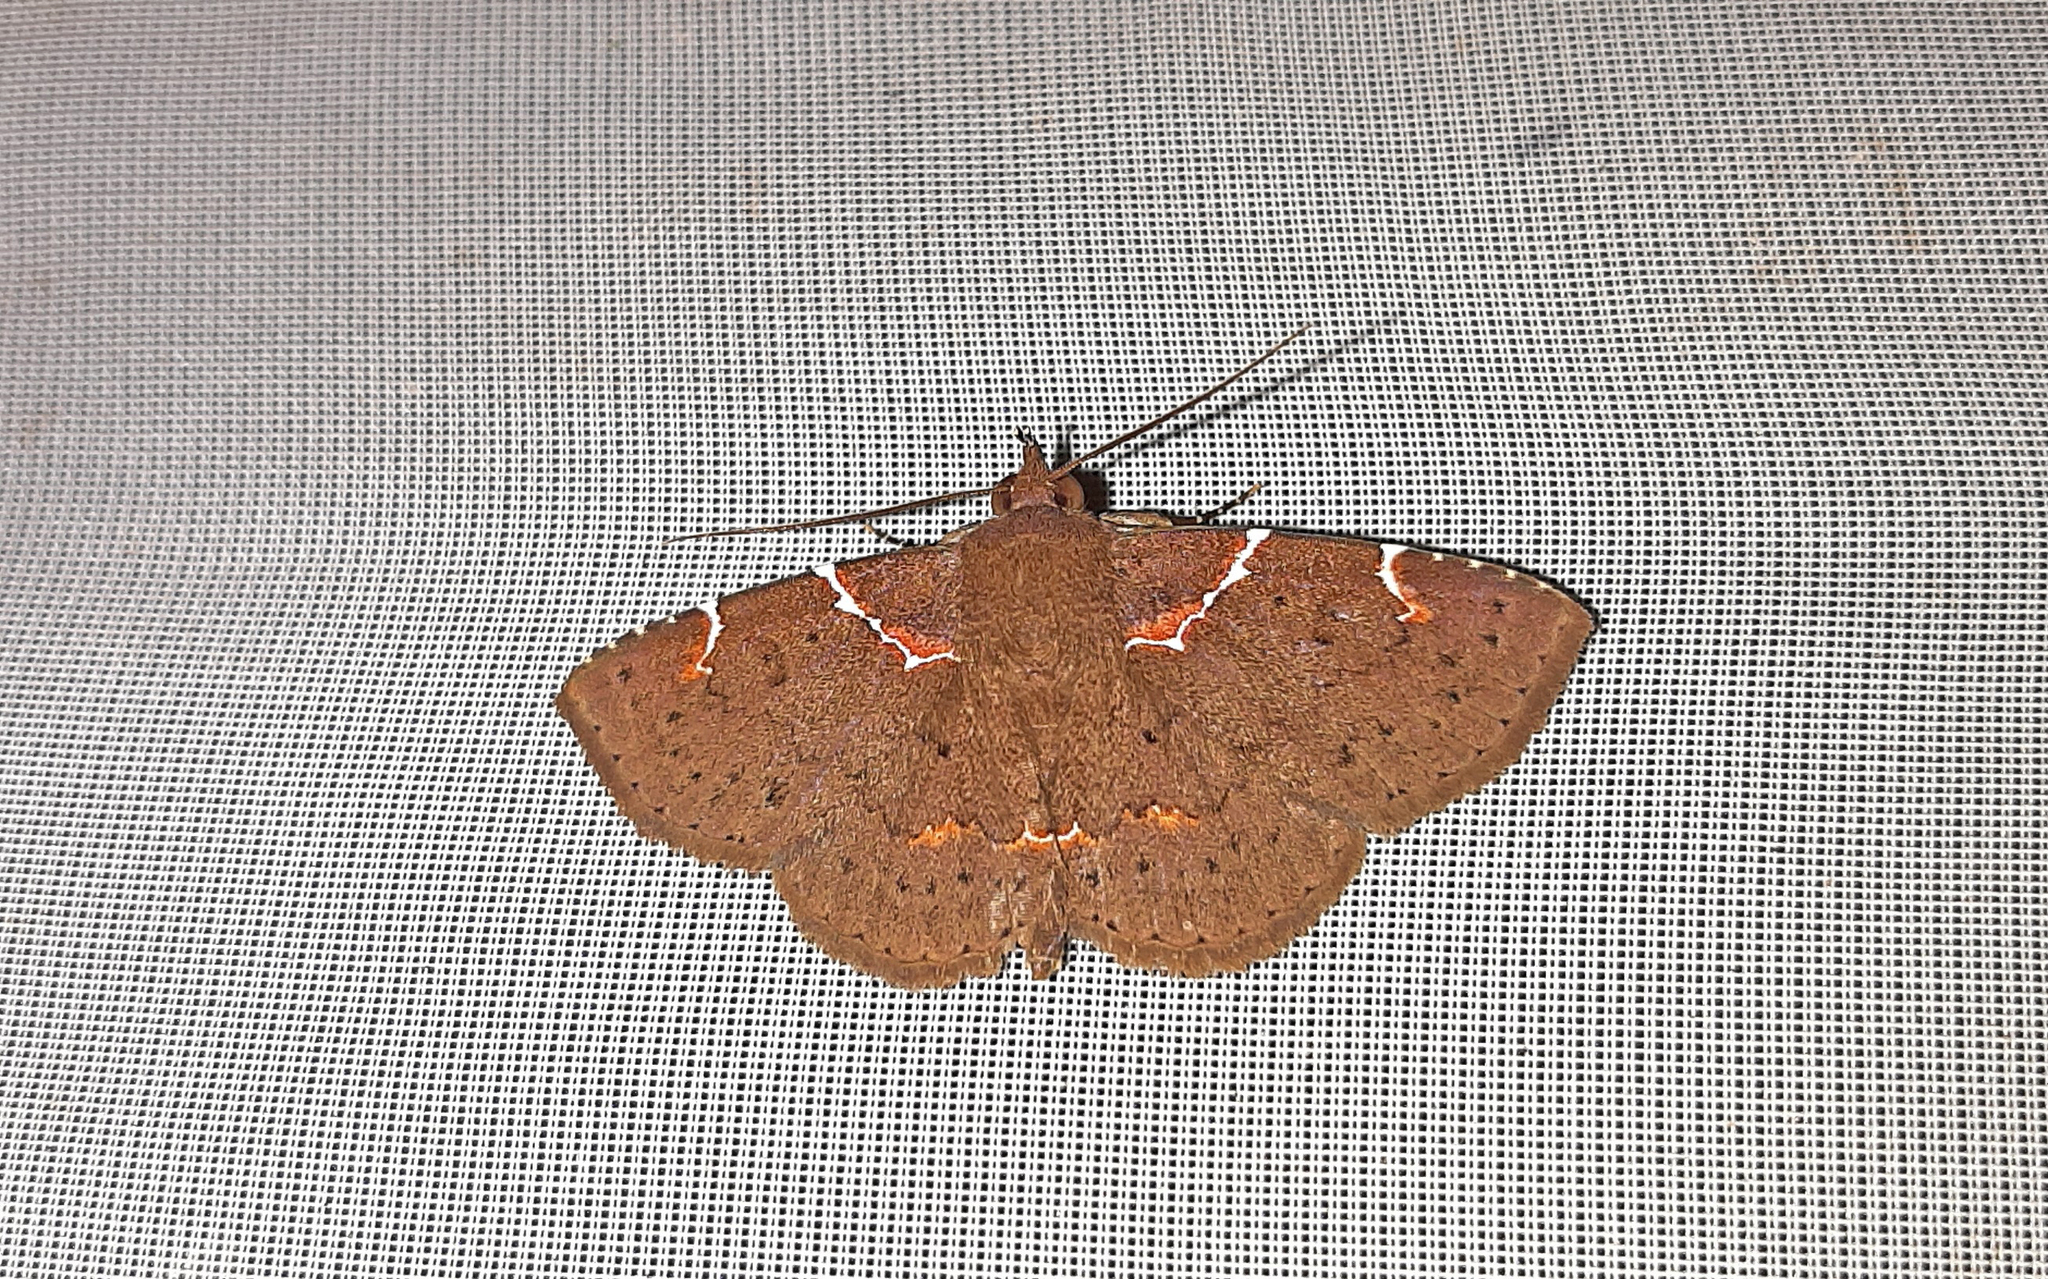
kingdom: Animalia
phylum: Arthropoda
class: Insecta
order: Lepidoptera
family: Erebidae
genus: Antiblemma
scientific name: Antiblemma lacteigera
